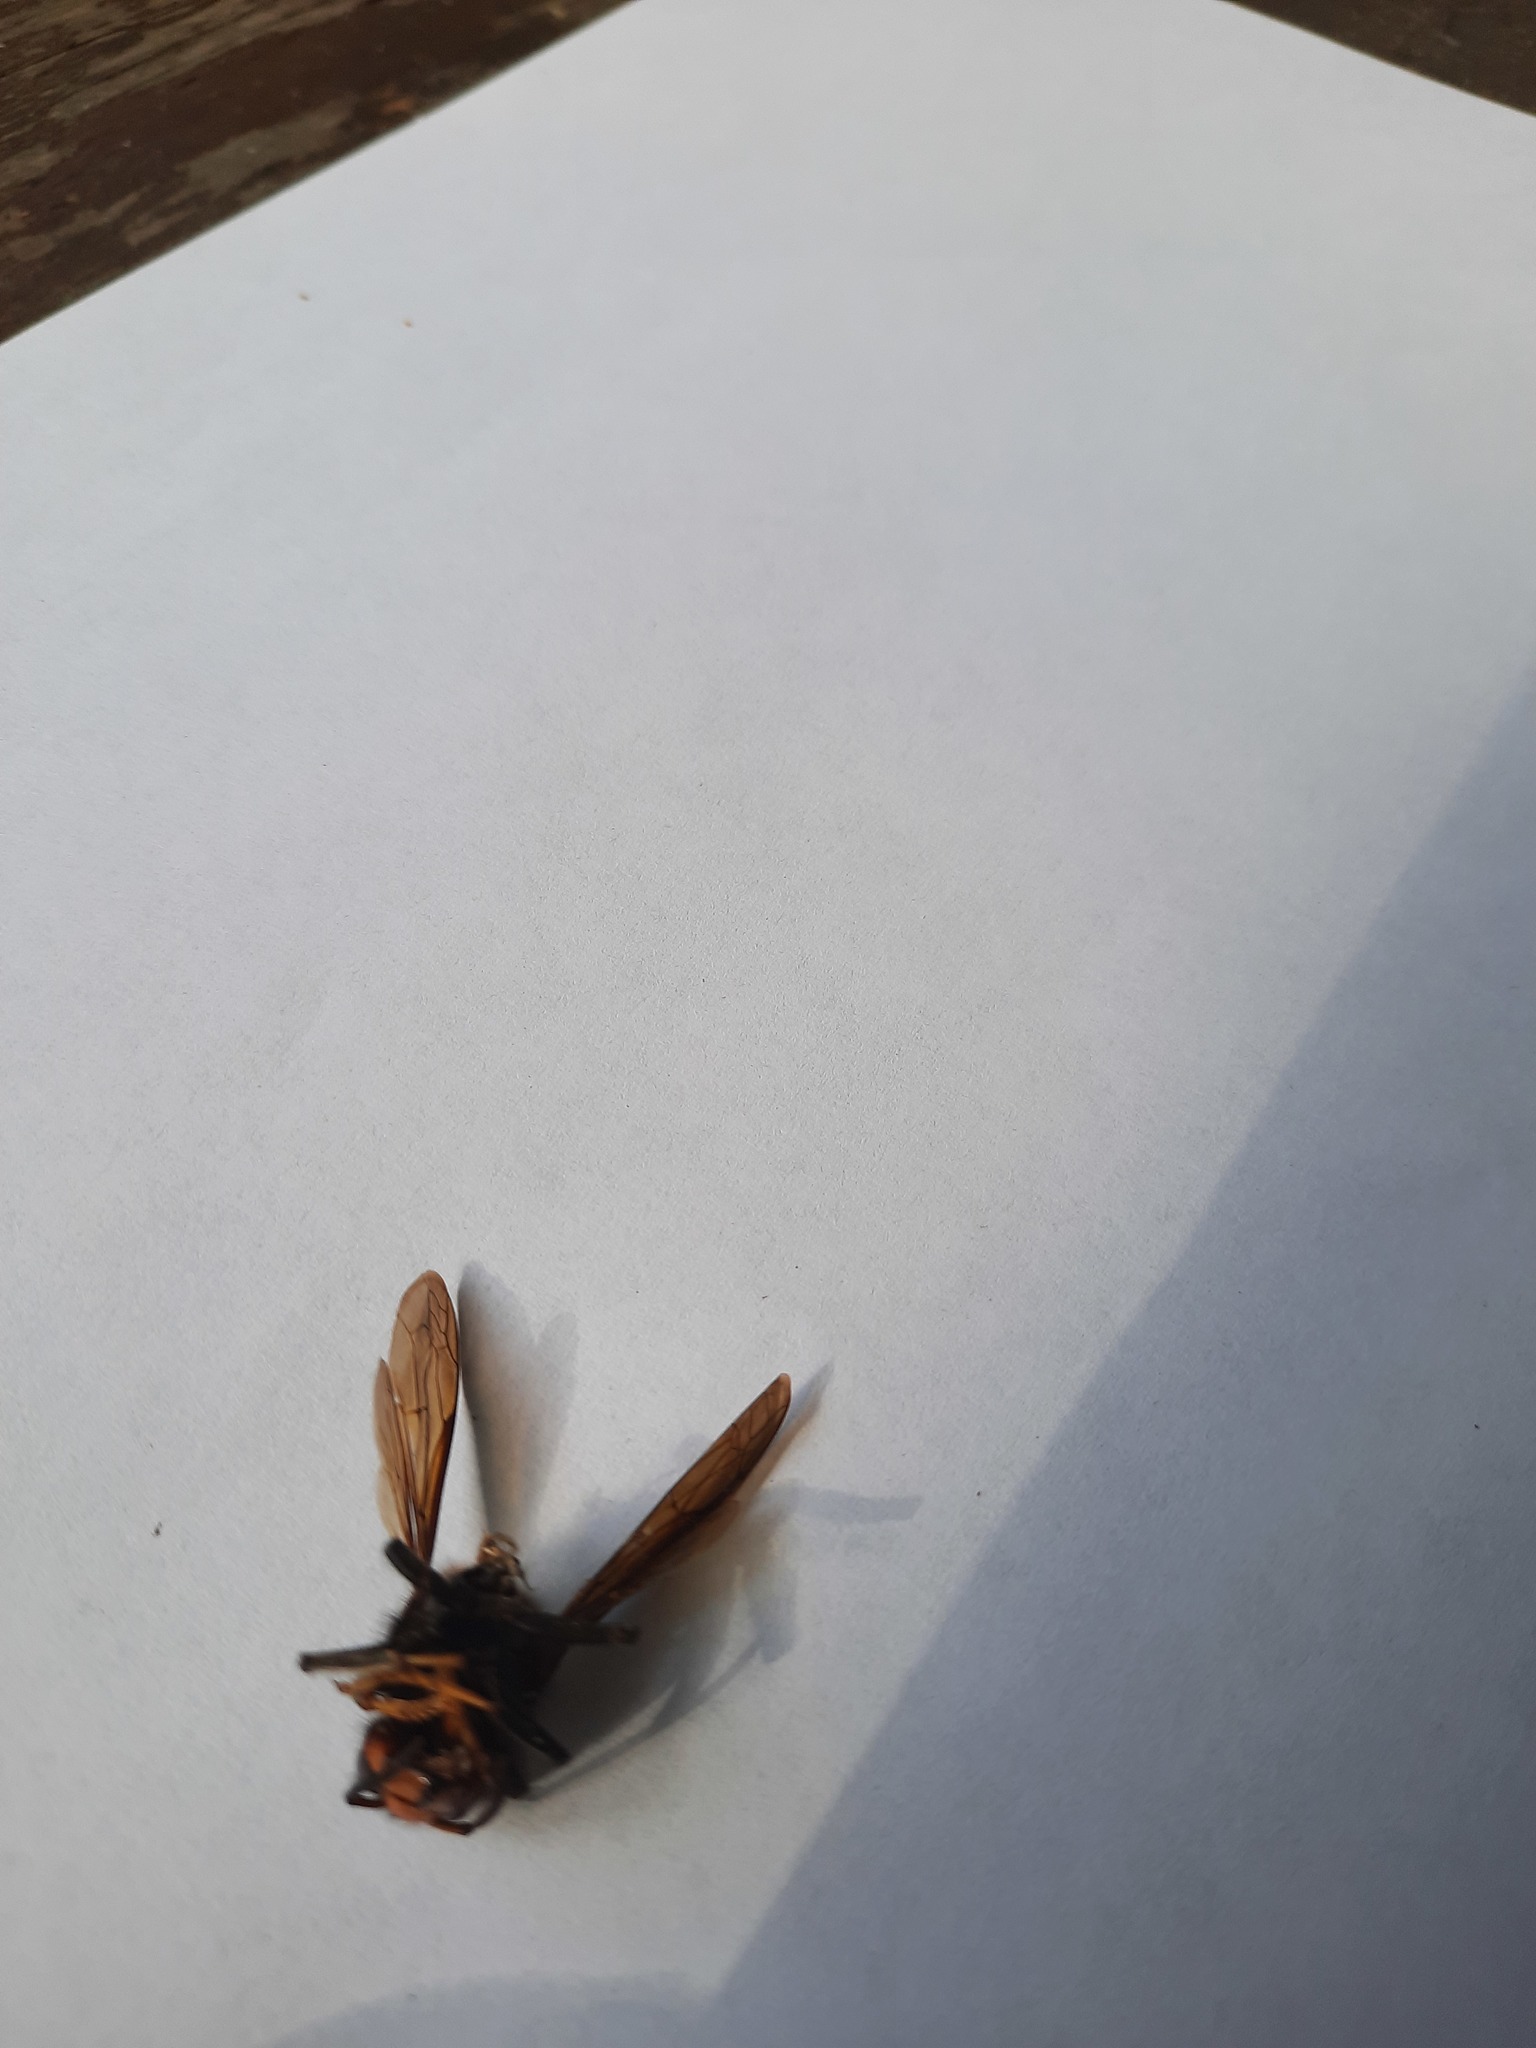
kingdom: Animalia
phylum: Arthropoda
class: Insecta
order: Hymenoptera
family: Vespidae
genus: Vespa
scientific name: Vespa velutina
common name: Asian hornet
